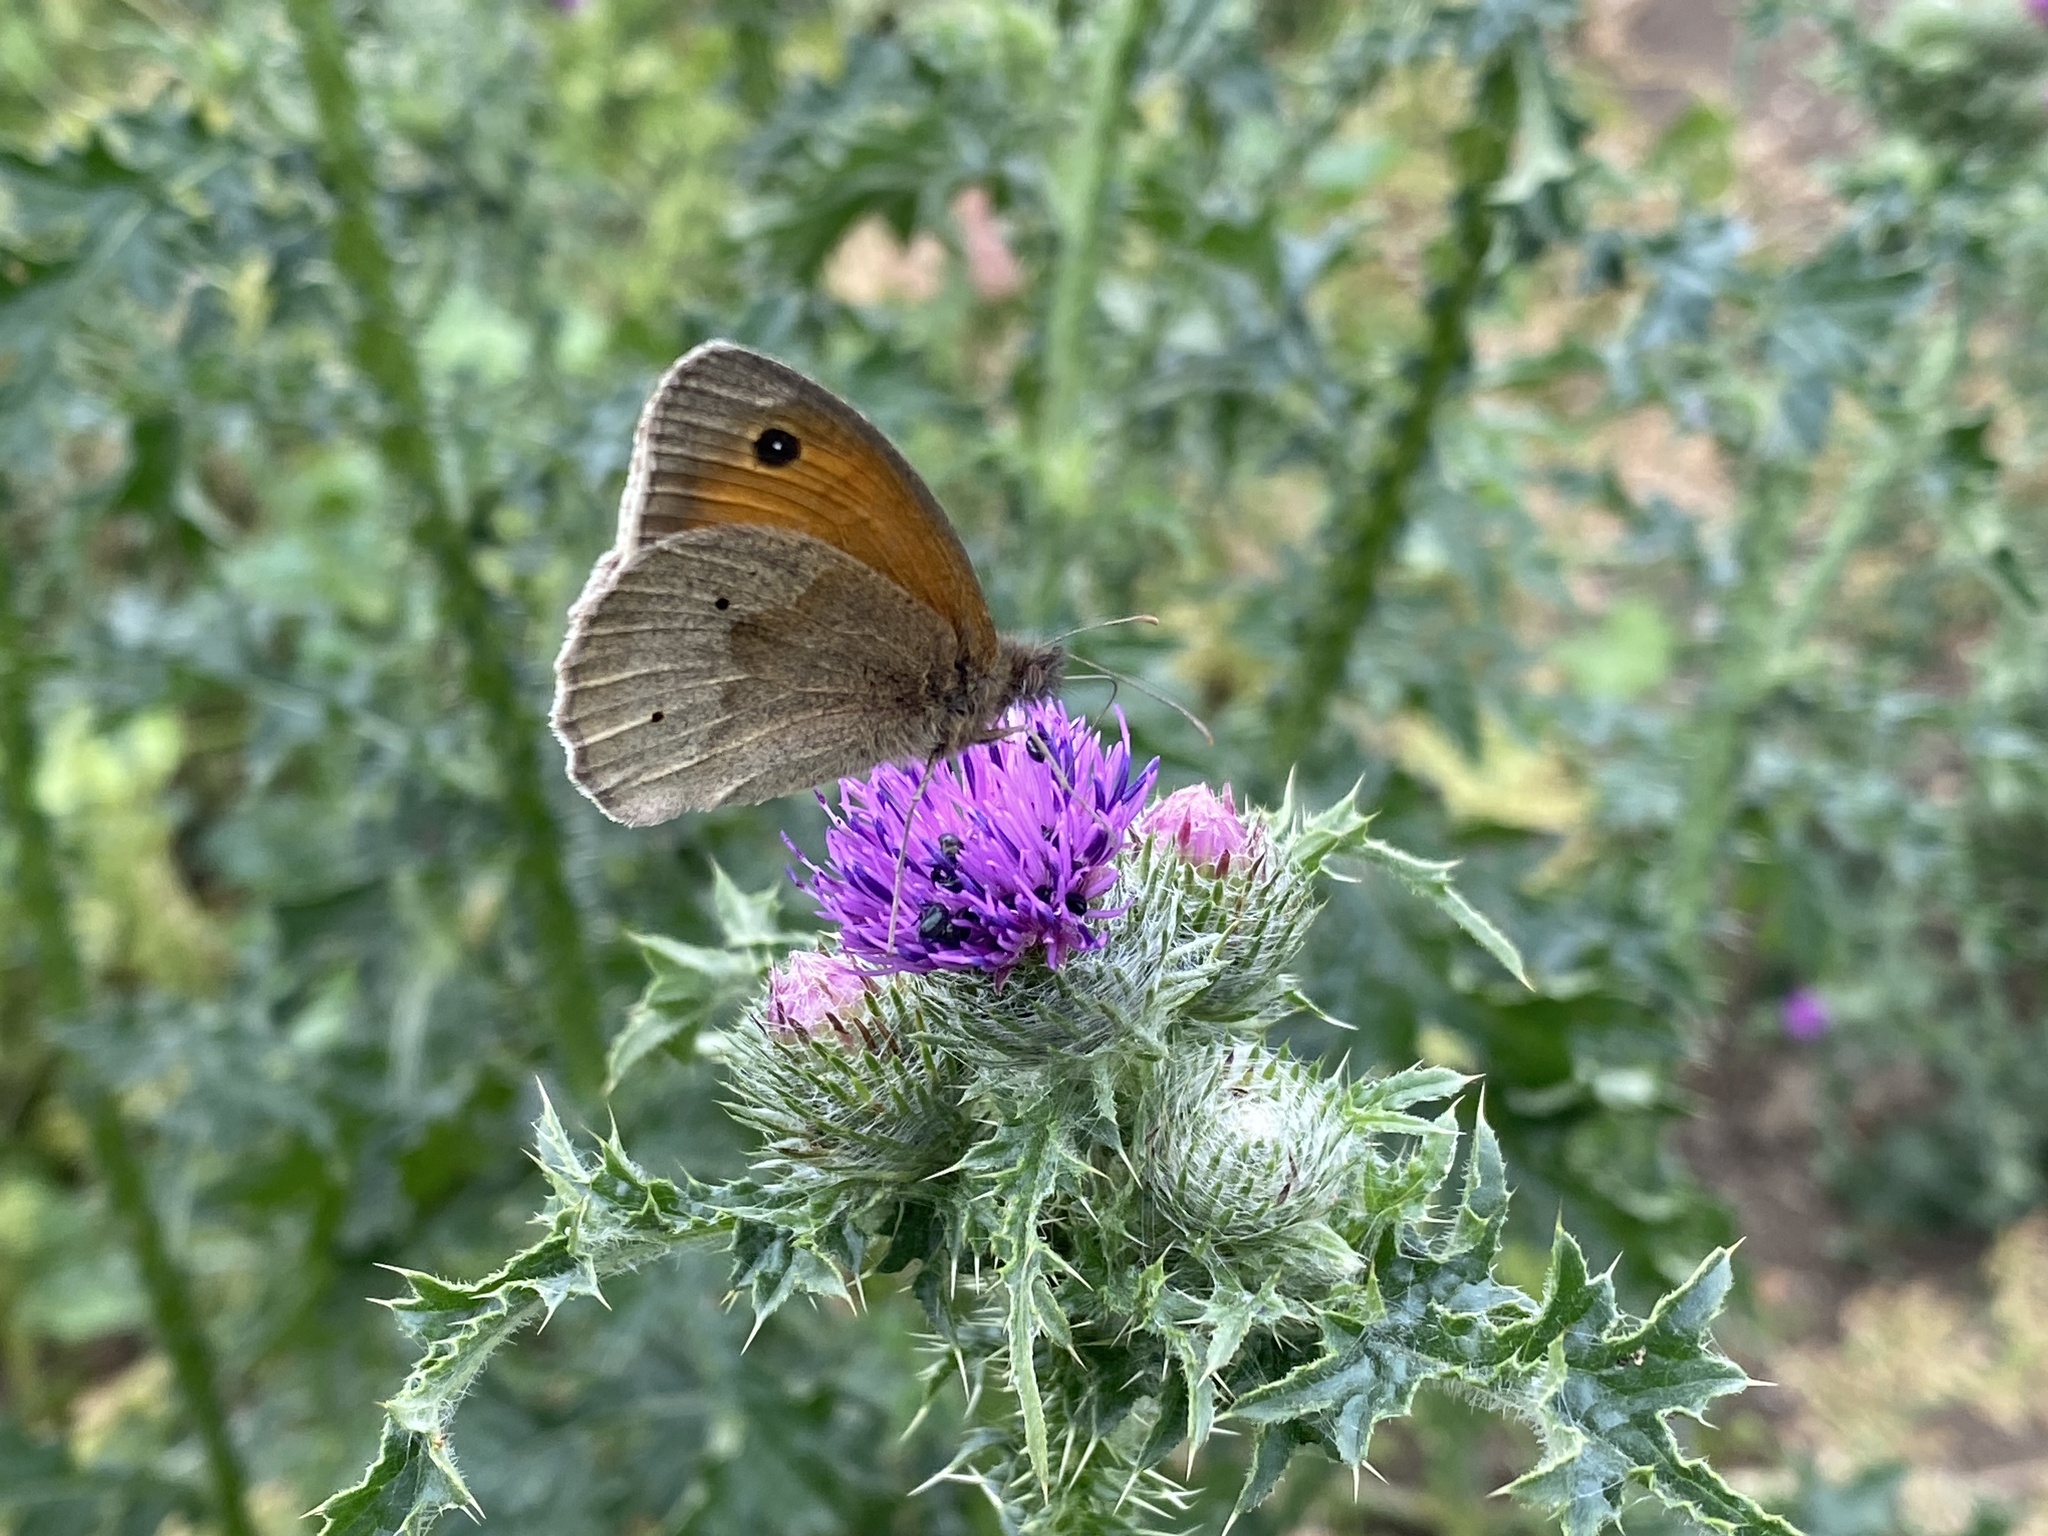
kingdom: Animalia
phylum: Arthropoda
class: Insecta
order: Lepidoptera
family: Nymphalidae
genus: Maniola
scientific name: Maniola jurtina
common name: Meadow brown
